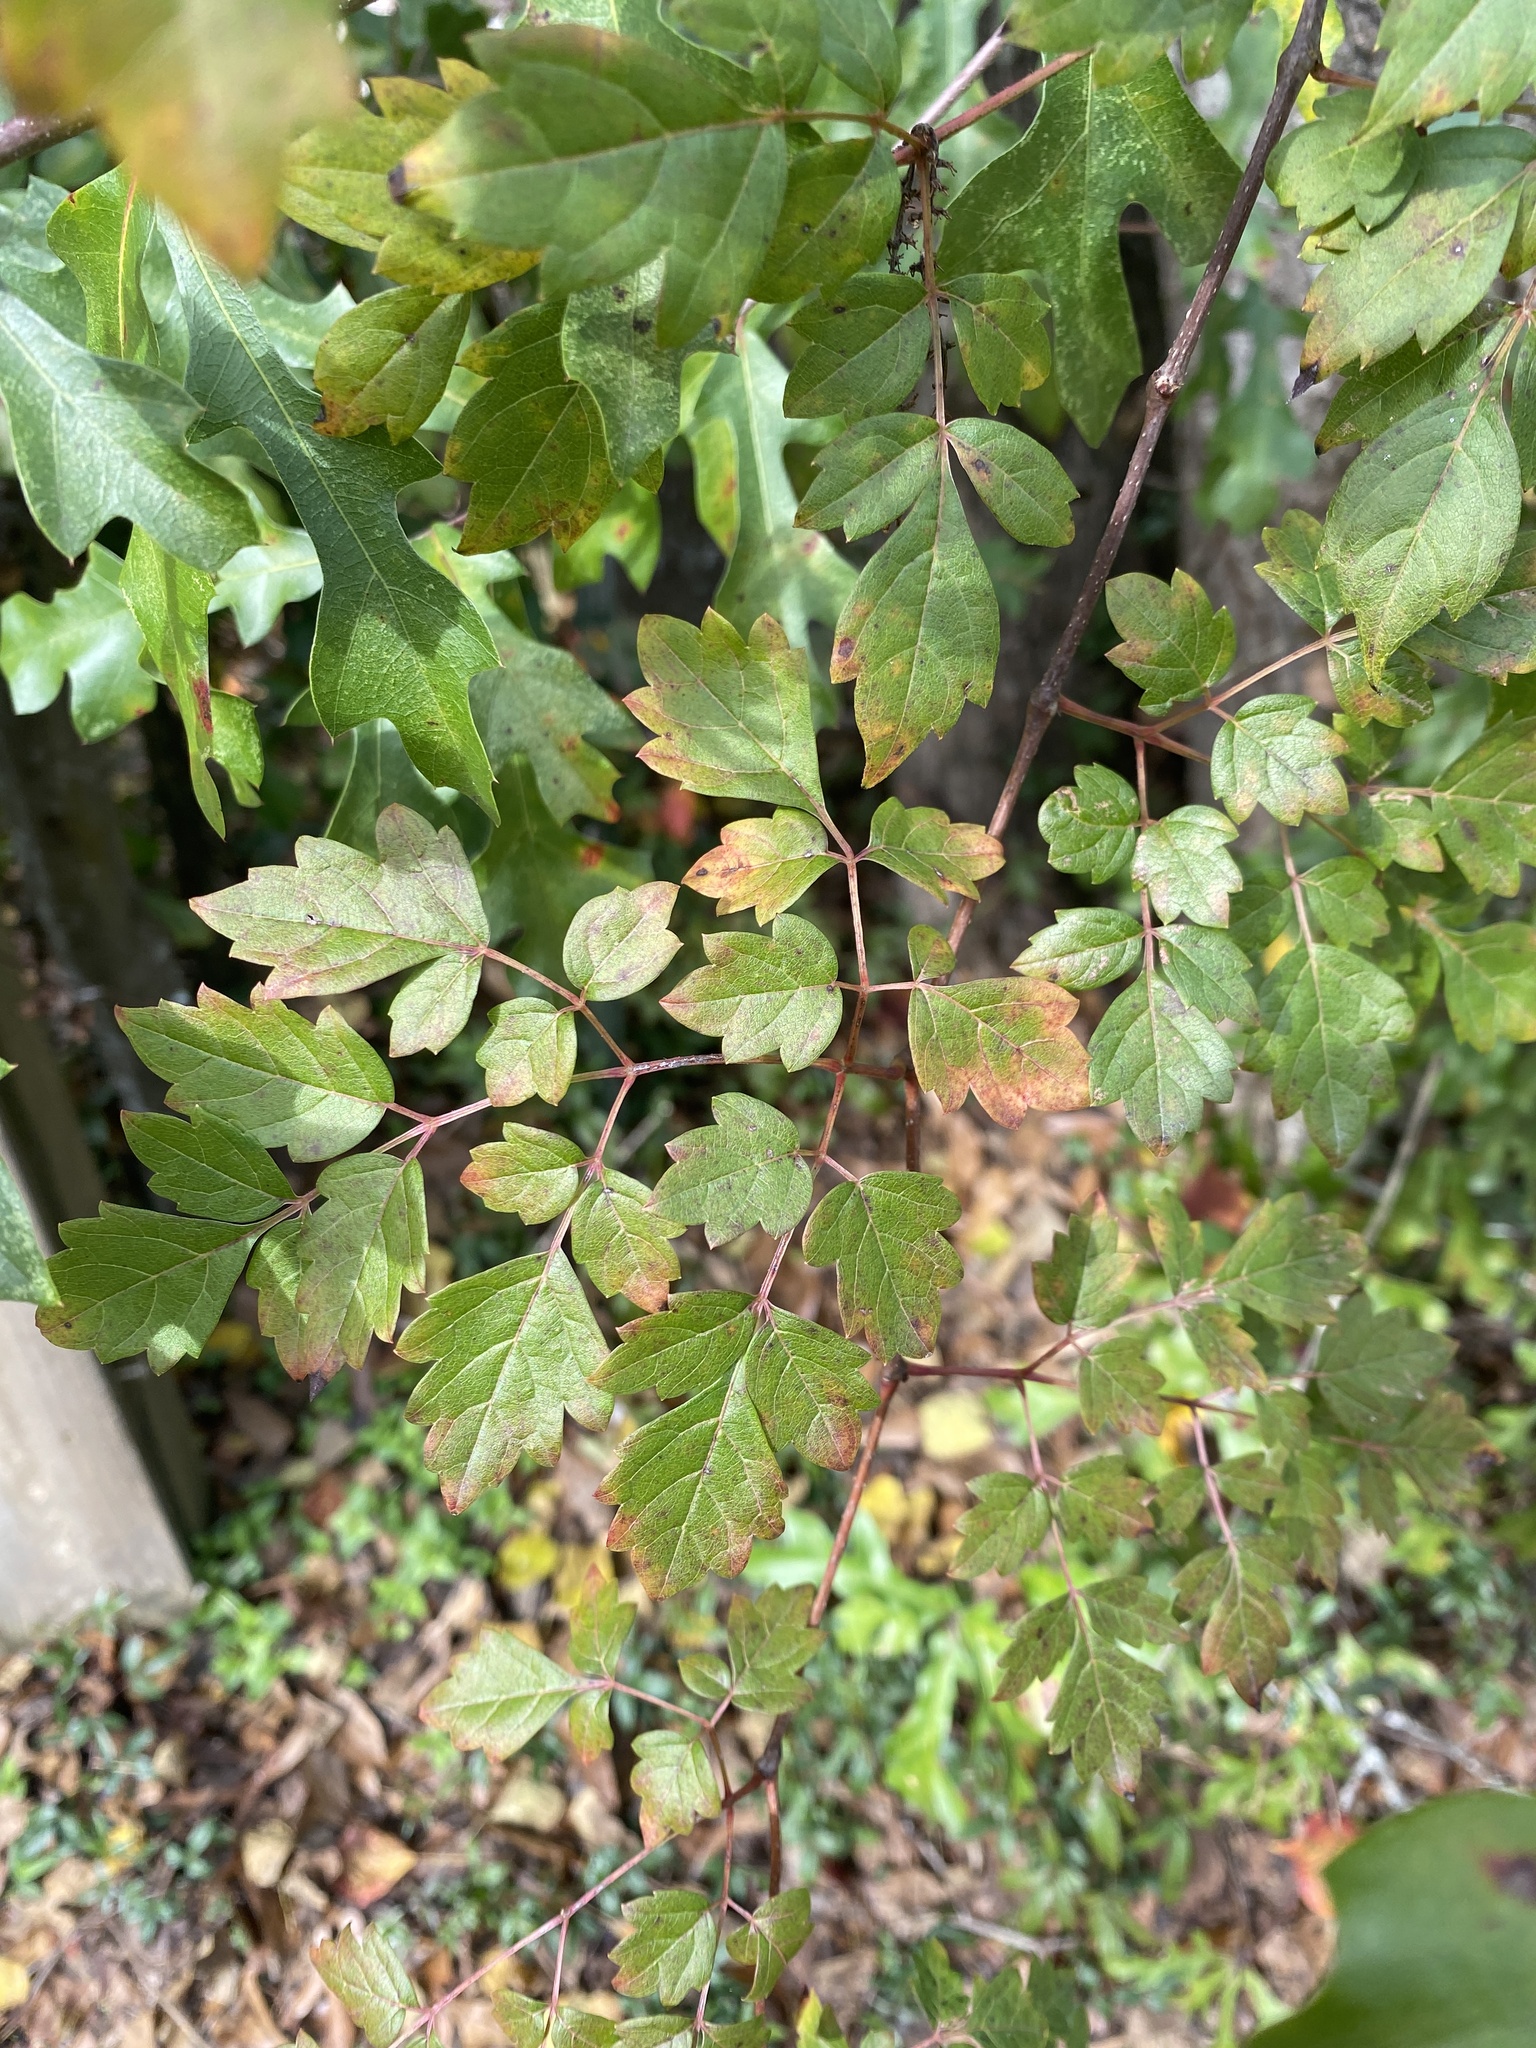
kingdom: Plantae
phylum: Tracheophyta
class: Magnoliopsida
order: Vitales
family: Vitaceae
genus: Nekemias
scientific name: Nekemias arborea
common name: Peppervine
